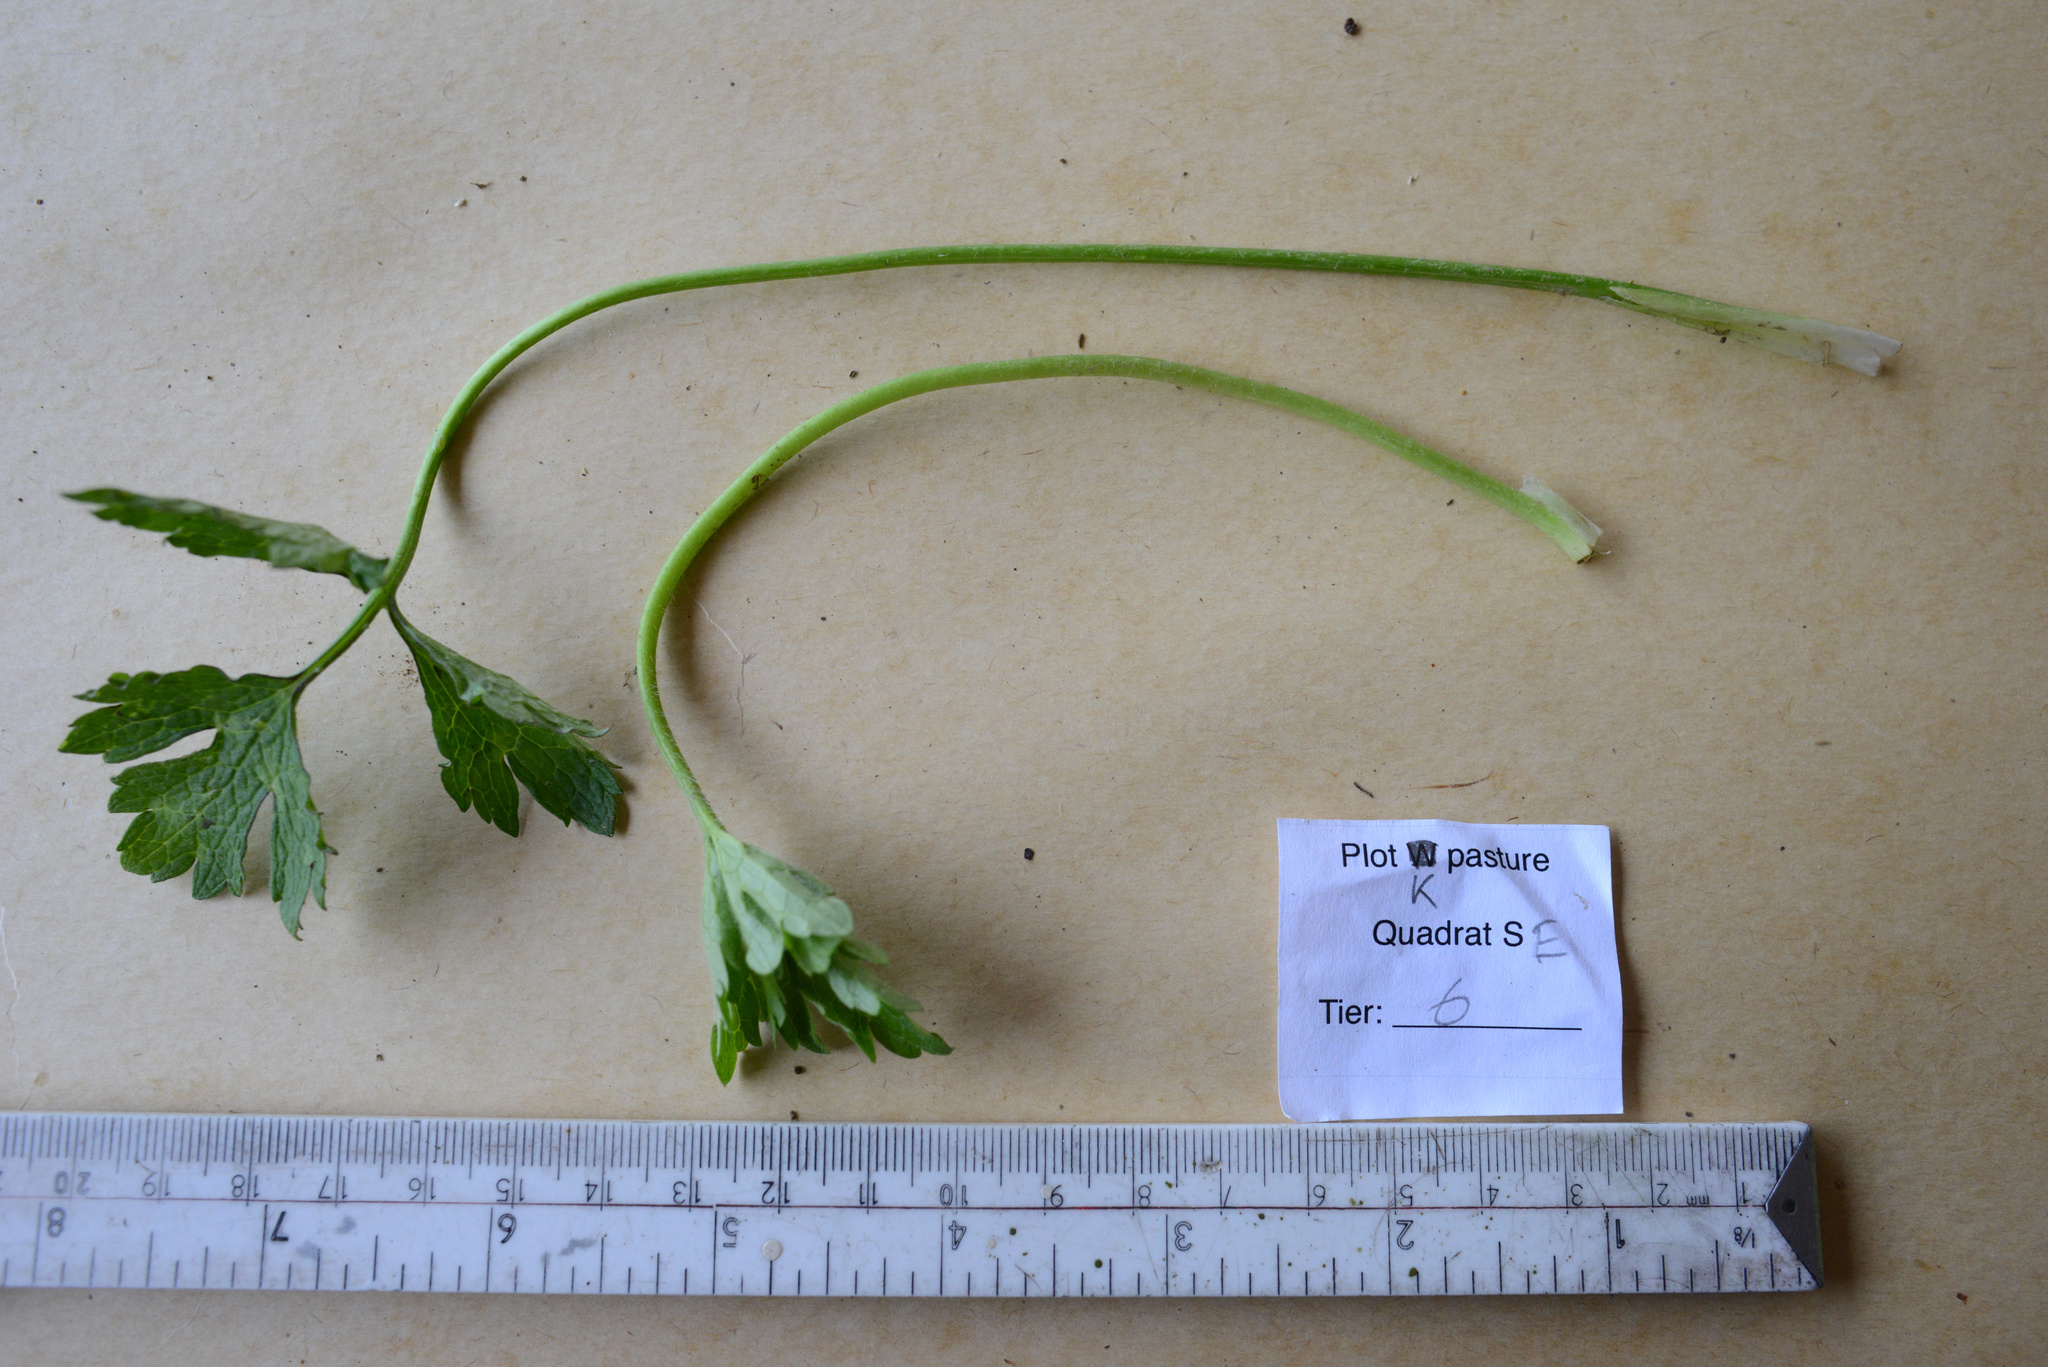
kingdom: Plantae
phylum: Tracheophyta
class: Magnoliopsida
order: Ranunculales
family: Ranunculaceae
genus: Ranunculus
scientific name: Ranunculus repens
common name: Creeping buttercup
